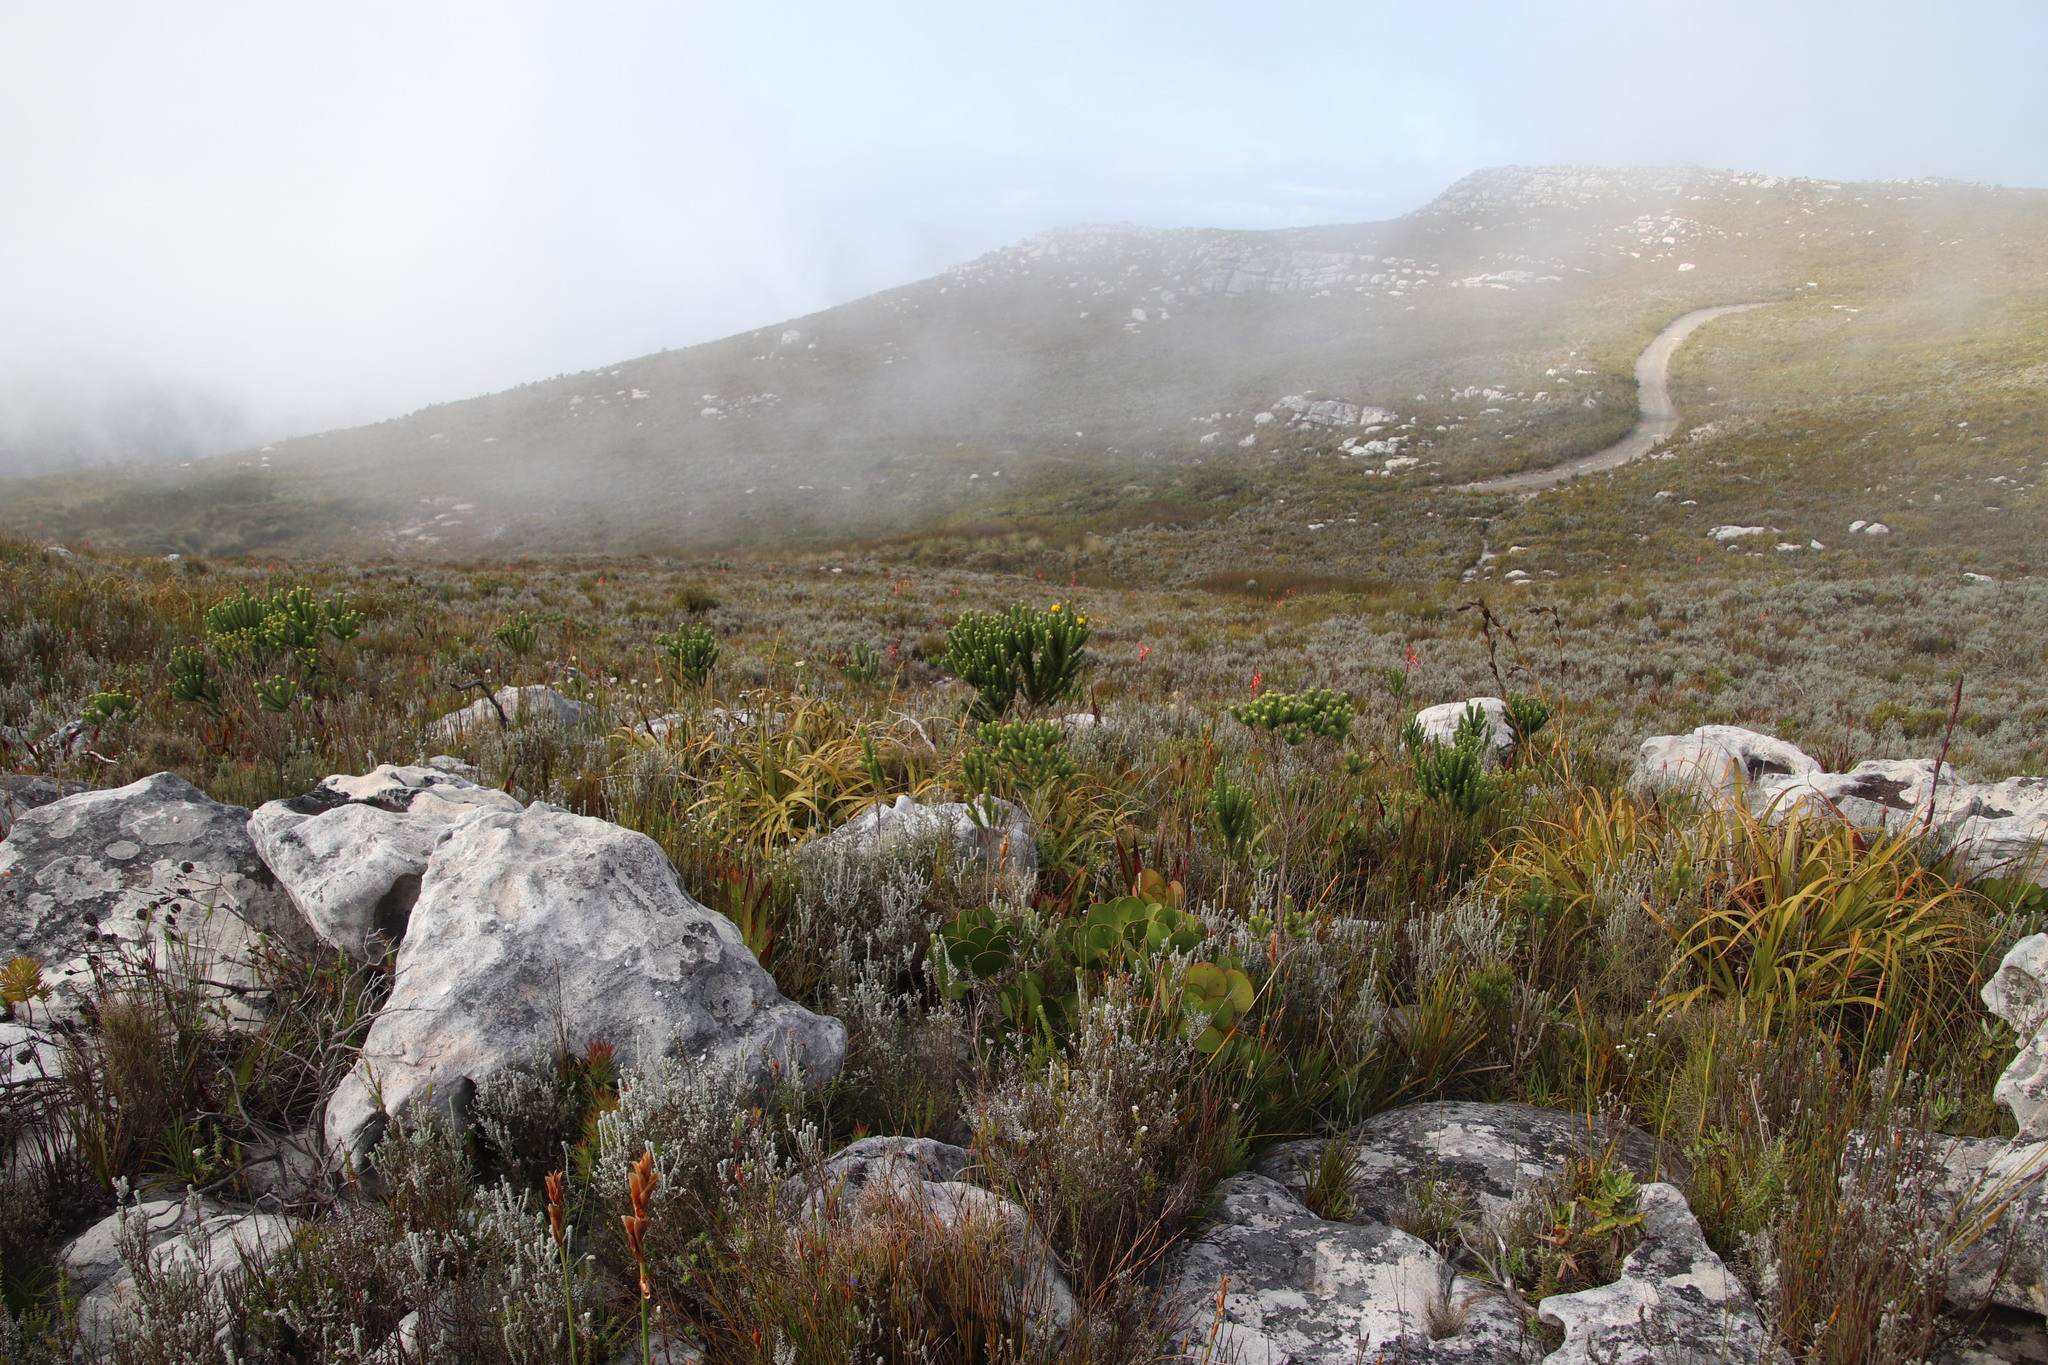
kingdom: Plantae
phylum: Tracheophyta
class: Magnoliopsida
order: Fabales
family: Fabaceae
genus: Aspalathus
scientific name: Aspalathus capitata
